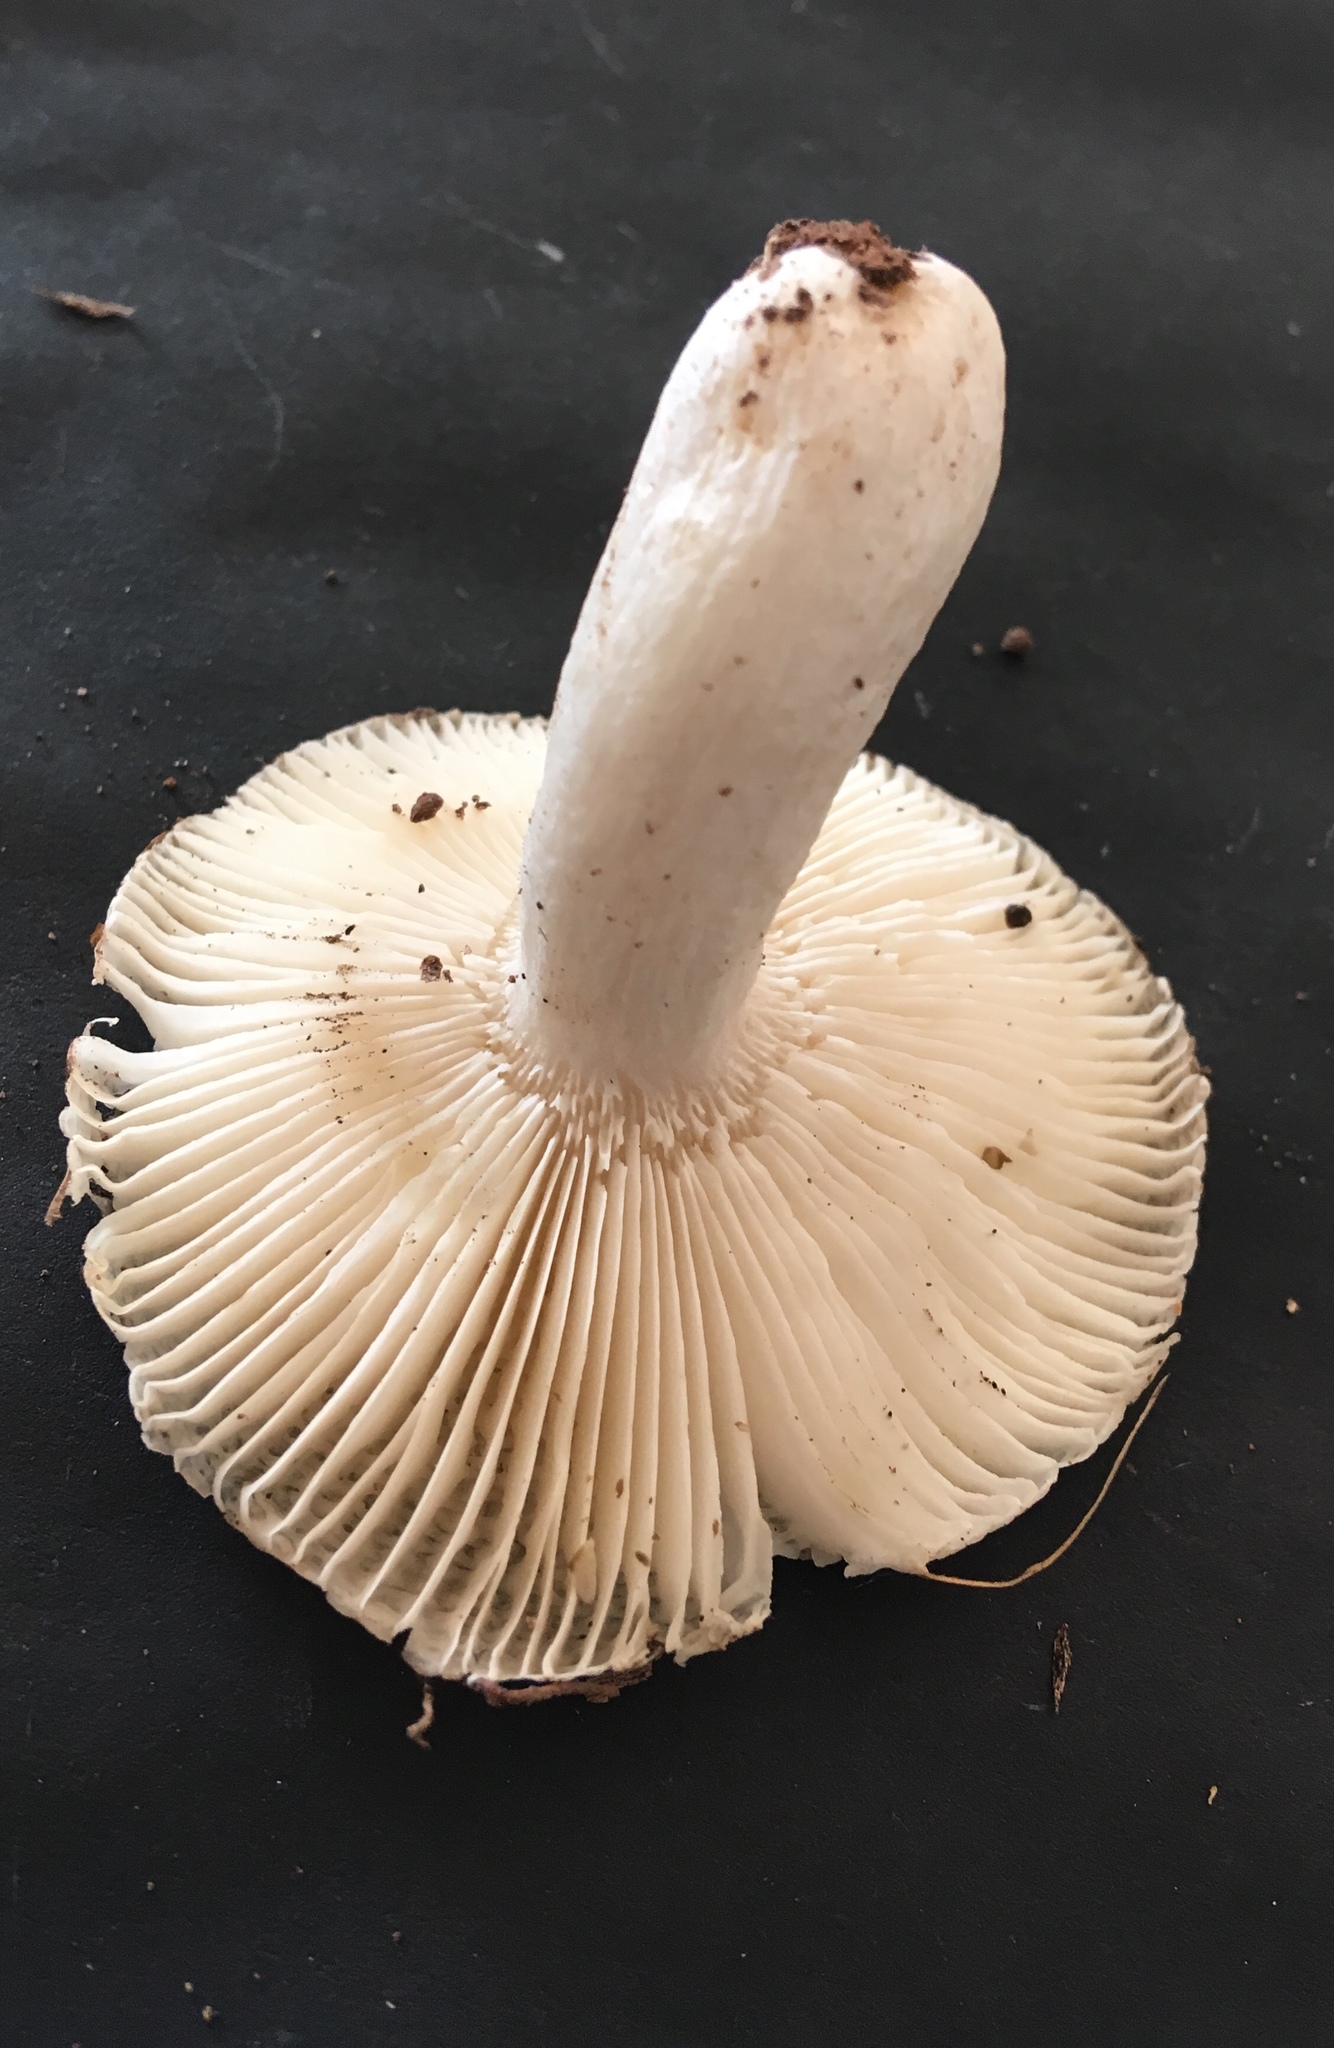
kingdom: Fungi
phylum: Basidiomycota
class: Agaricomycetes
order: Russulales
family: Russulaceae
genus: Russula
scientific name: Russula
